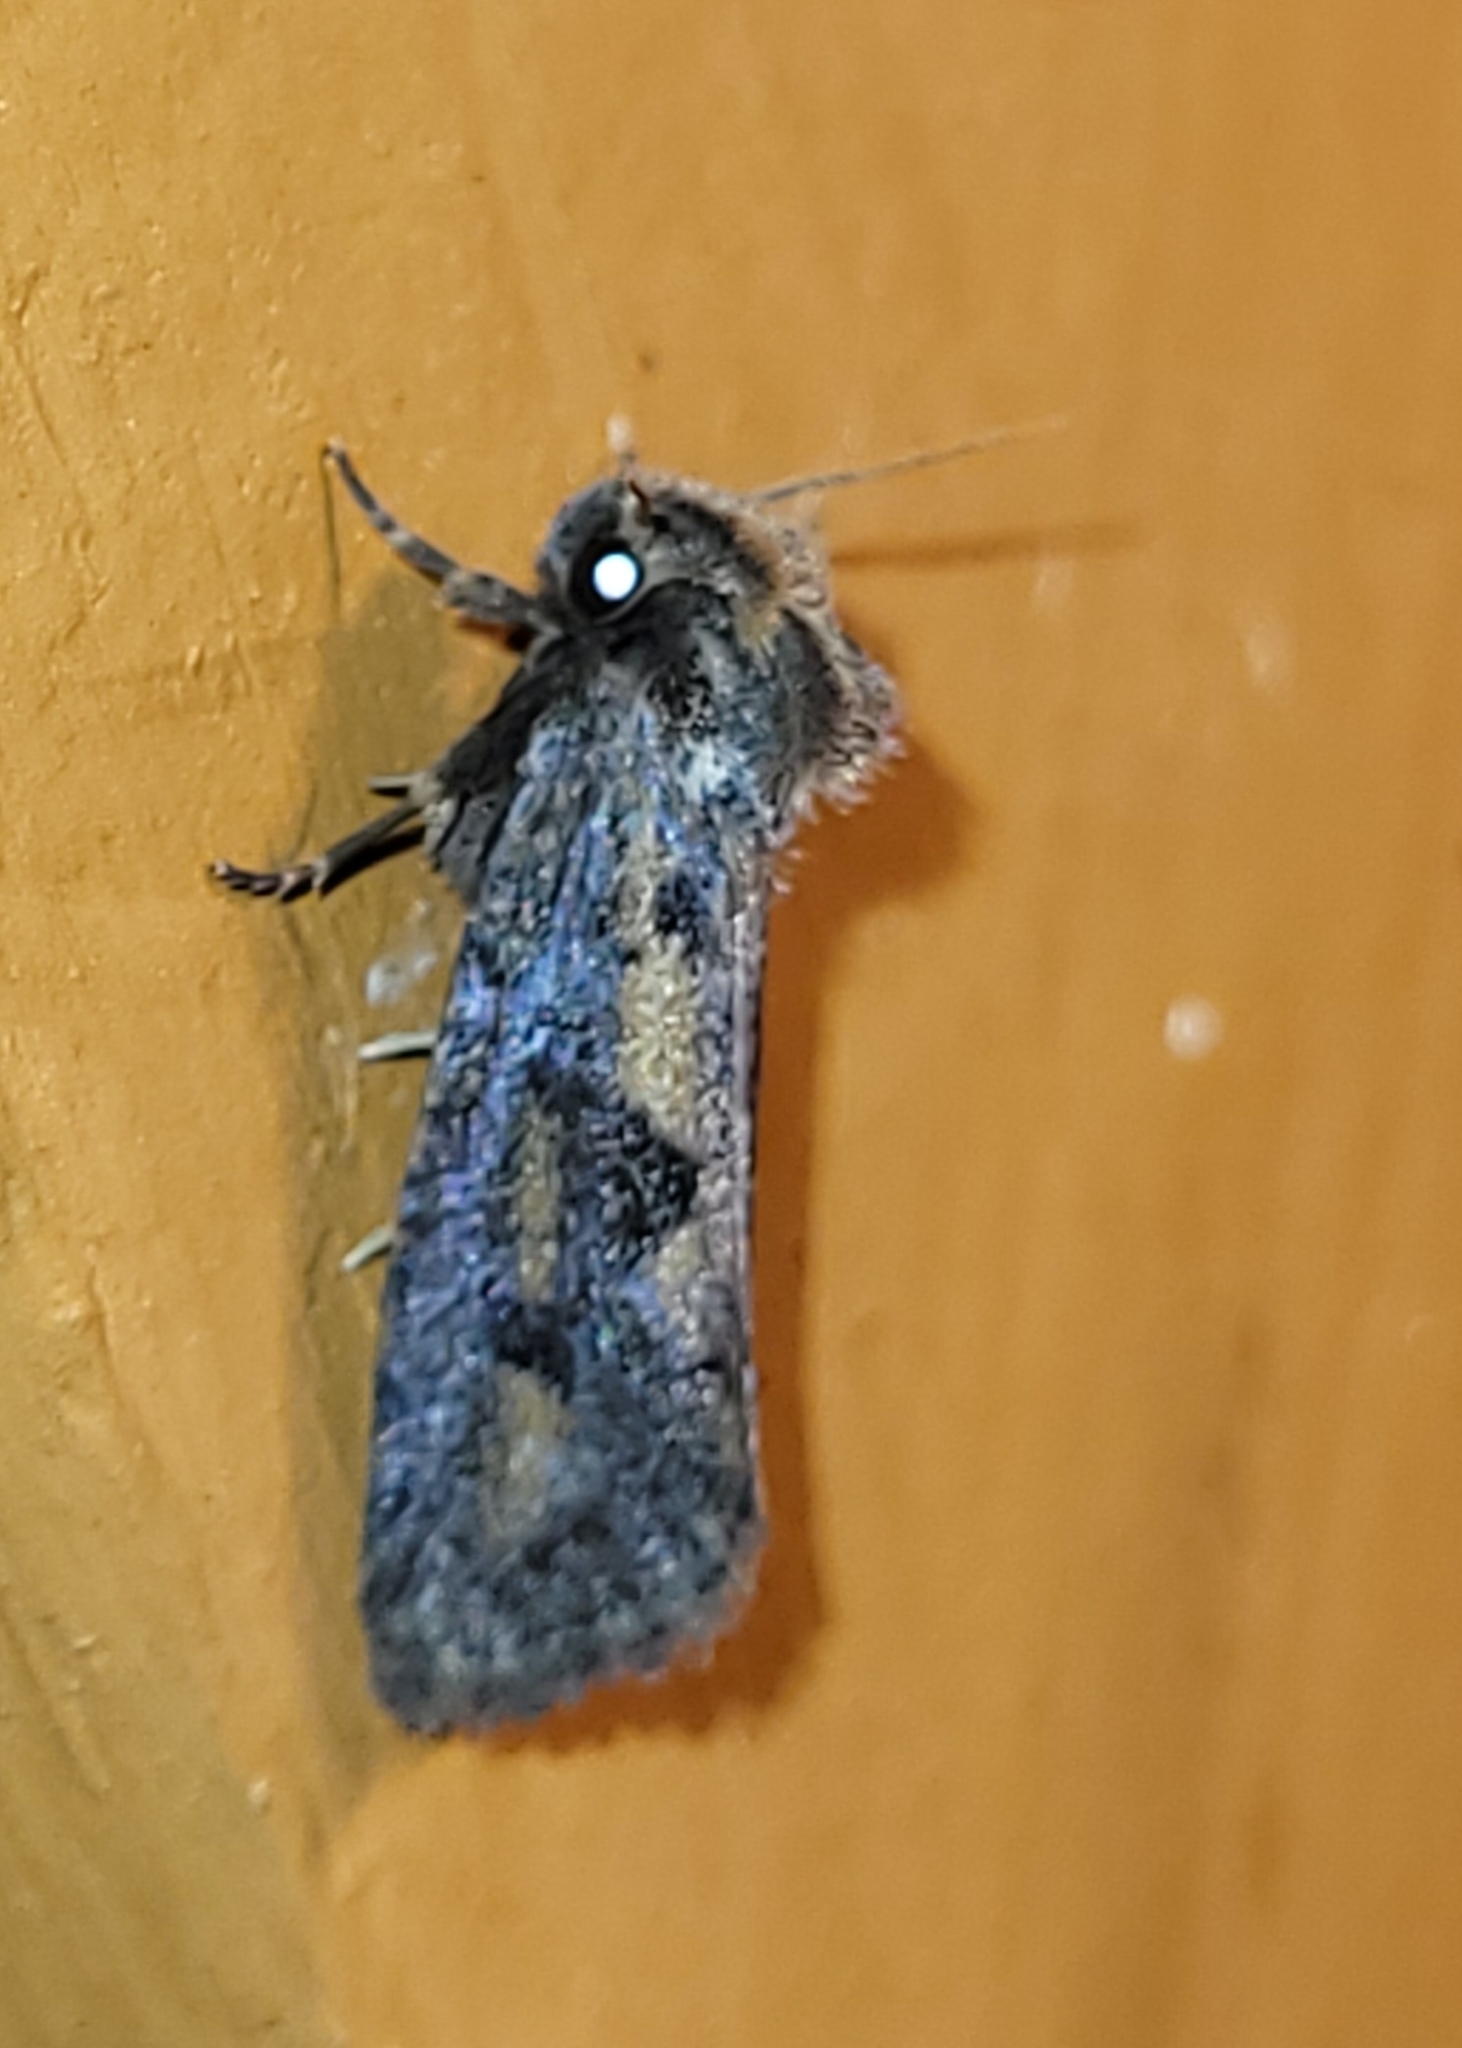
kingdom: Animalia
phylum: Arthropoda
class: Insecta
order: Lepidoptera
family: Tineidae
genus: Acrolophus
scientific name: Acrolophus popeanella
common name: Clemens' grass tubeworm moth
